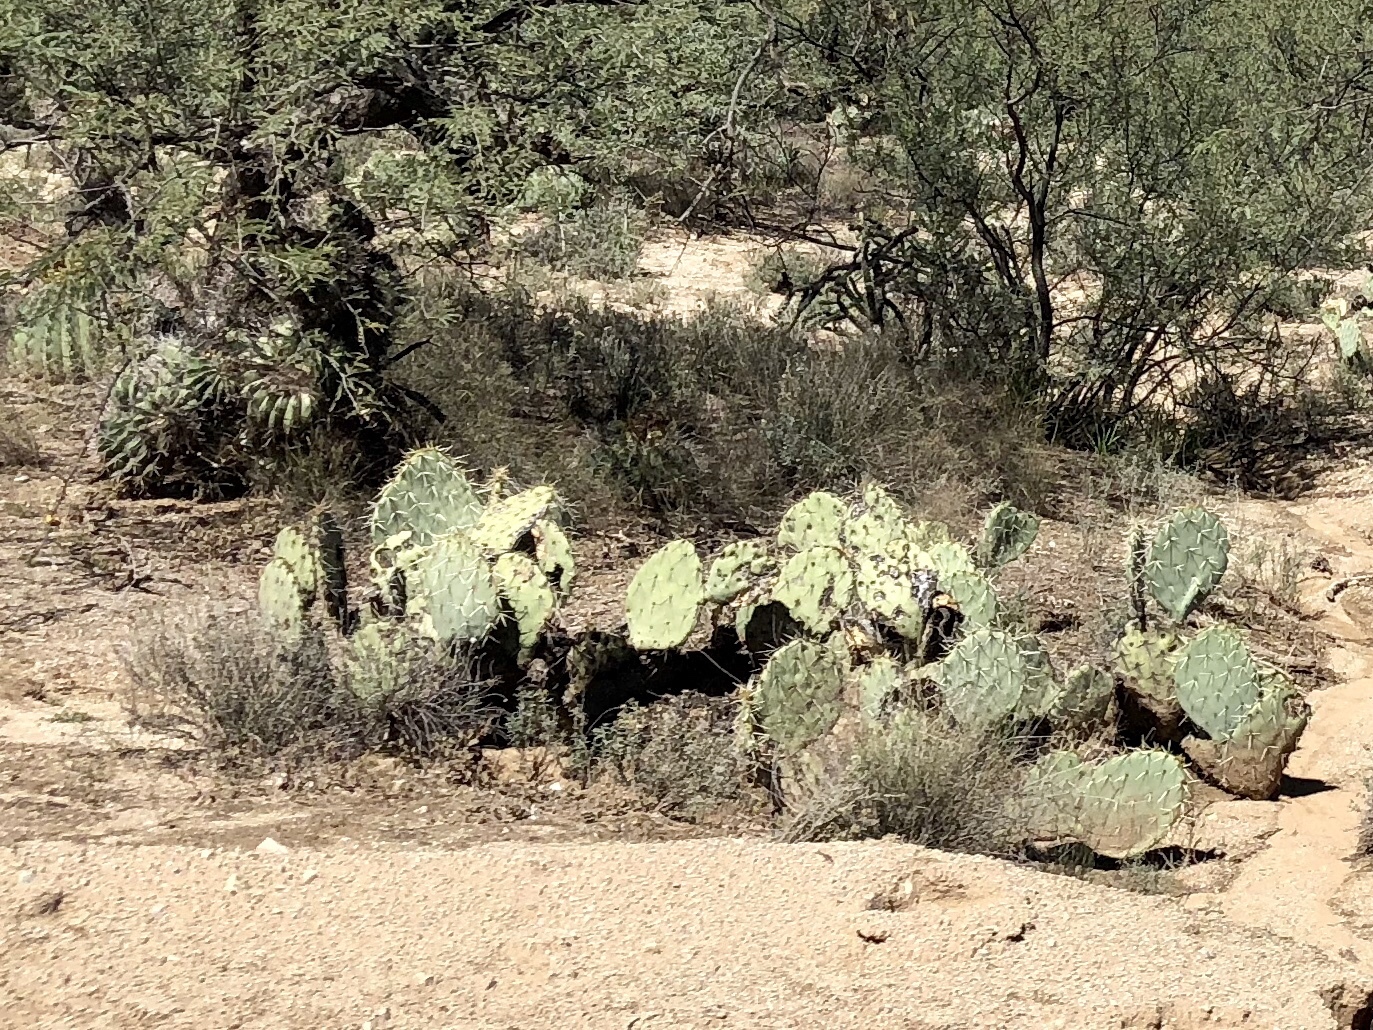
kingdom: Plantae
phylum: Tracheophyta
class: Magnoliopsida
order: Caryophyllales
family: Cactaceae
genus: Opuntia
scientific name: Opuntia engelmannii
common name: Cactus-apple
